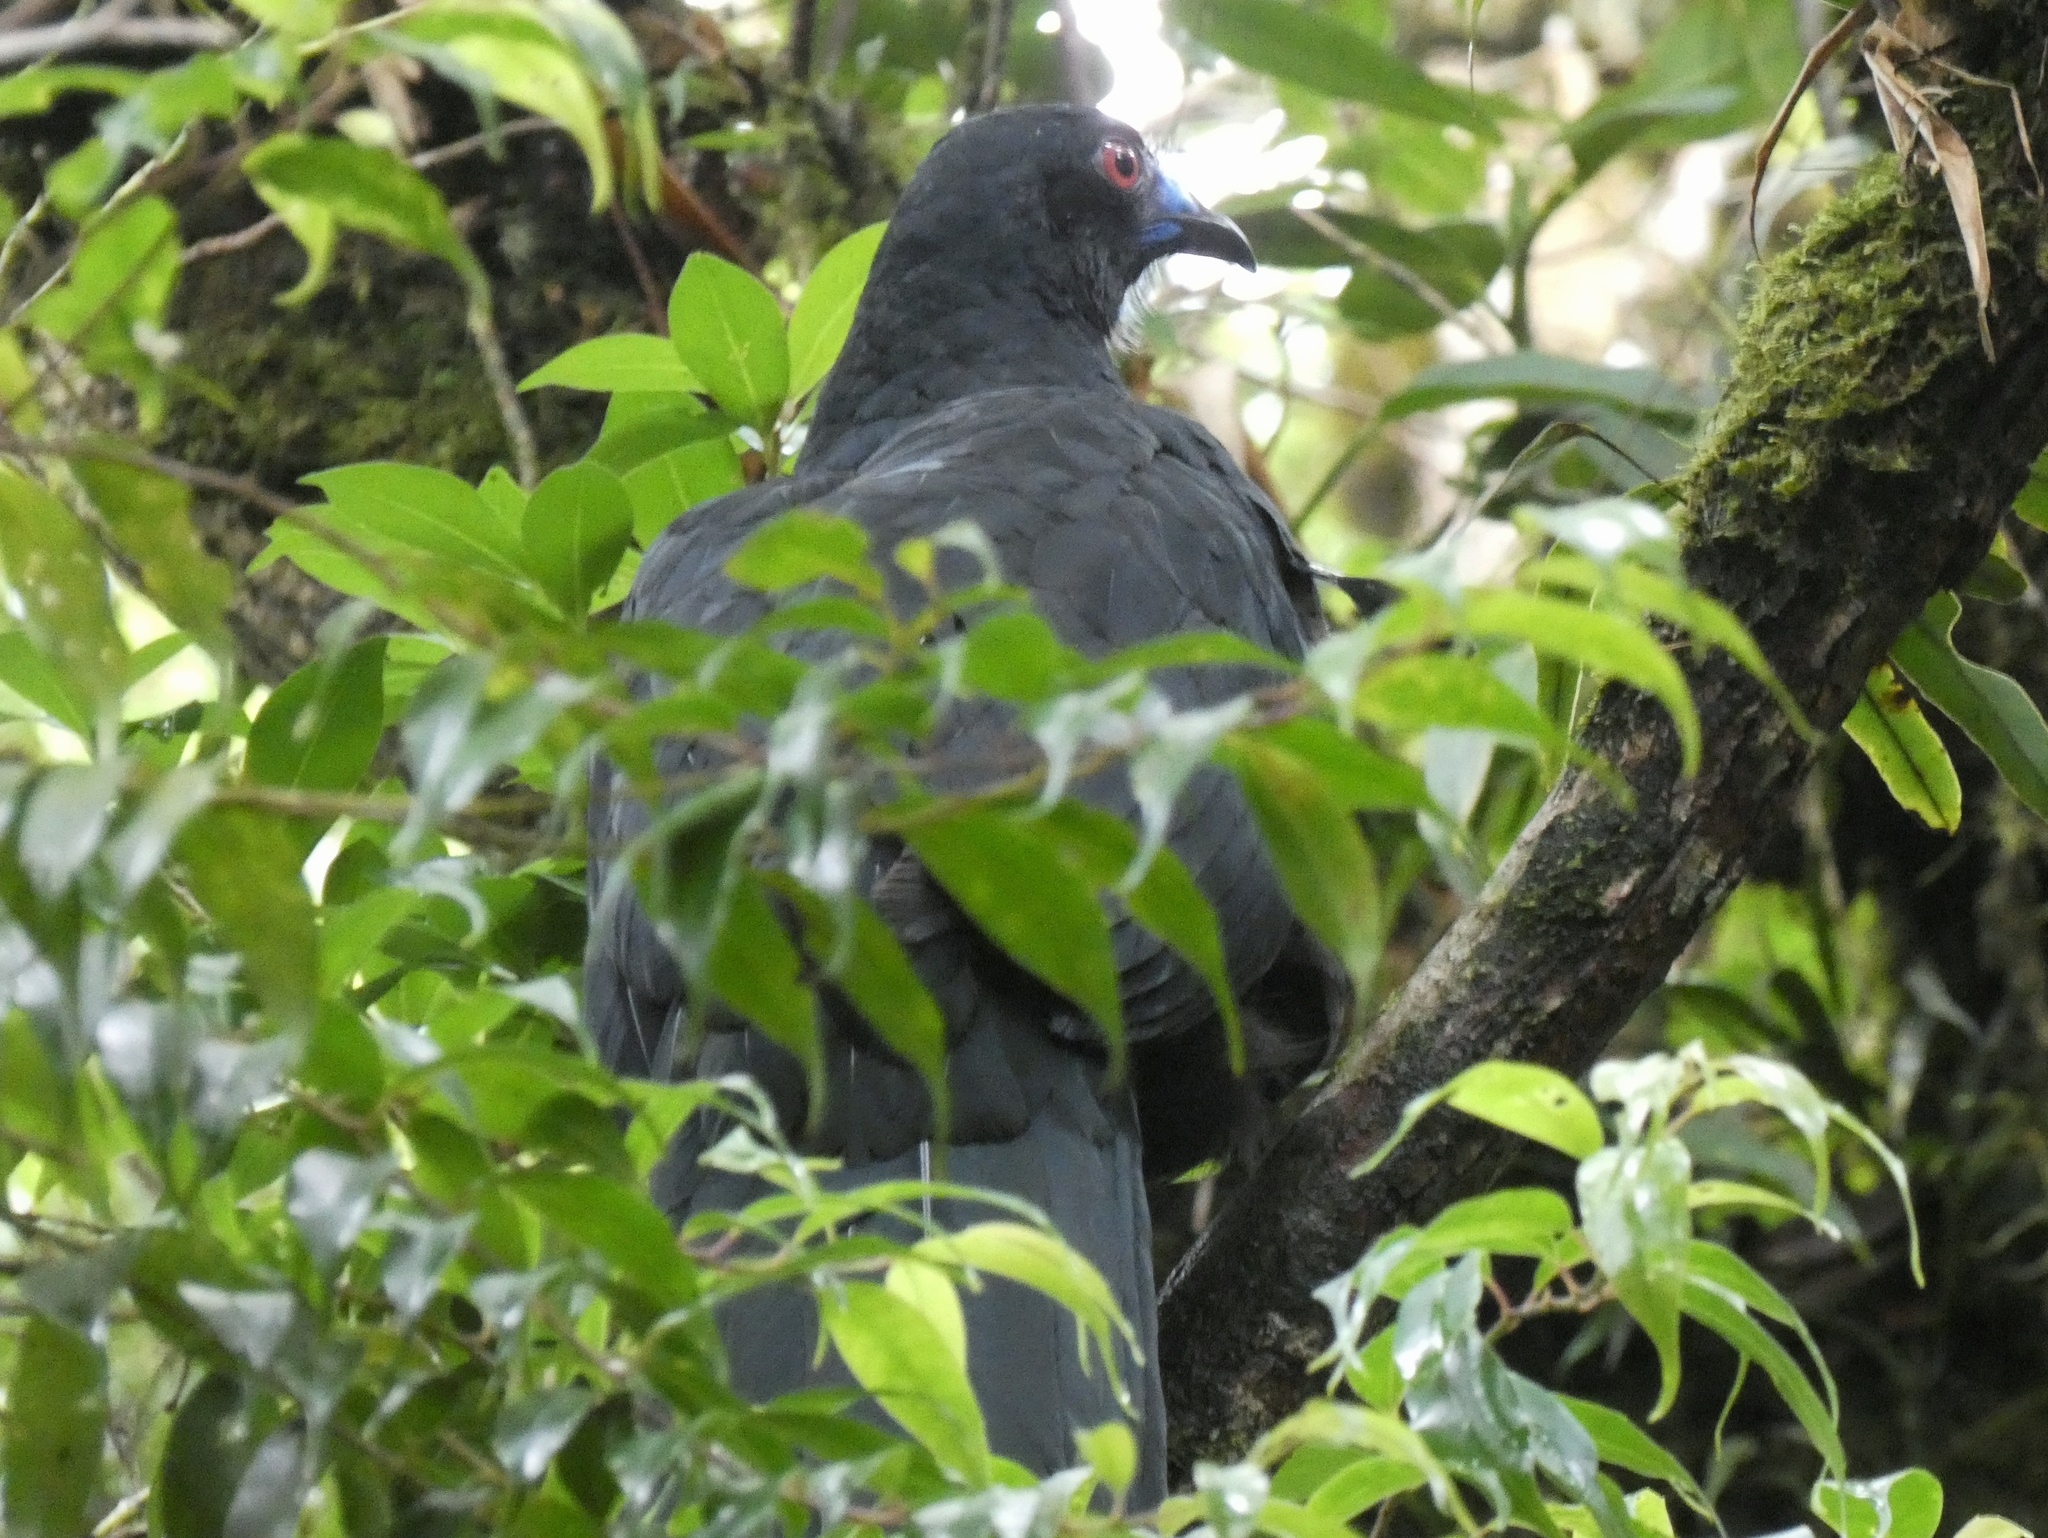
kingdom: Animalia
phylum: Chordata
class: Aves
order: Galliformes
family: Cracidae
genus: Chamaepetes
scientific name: Chamaepetes unicolor
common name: Black guan
